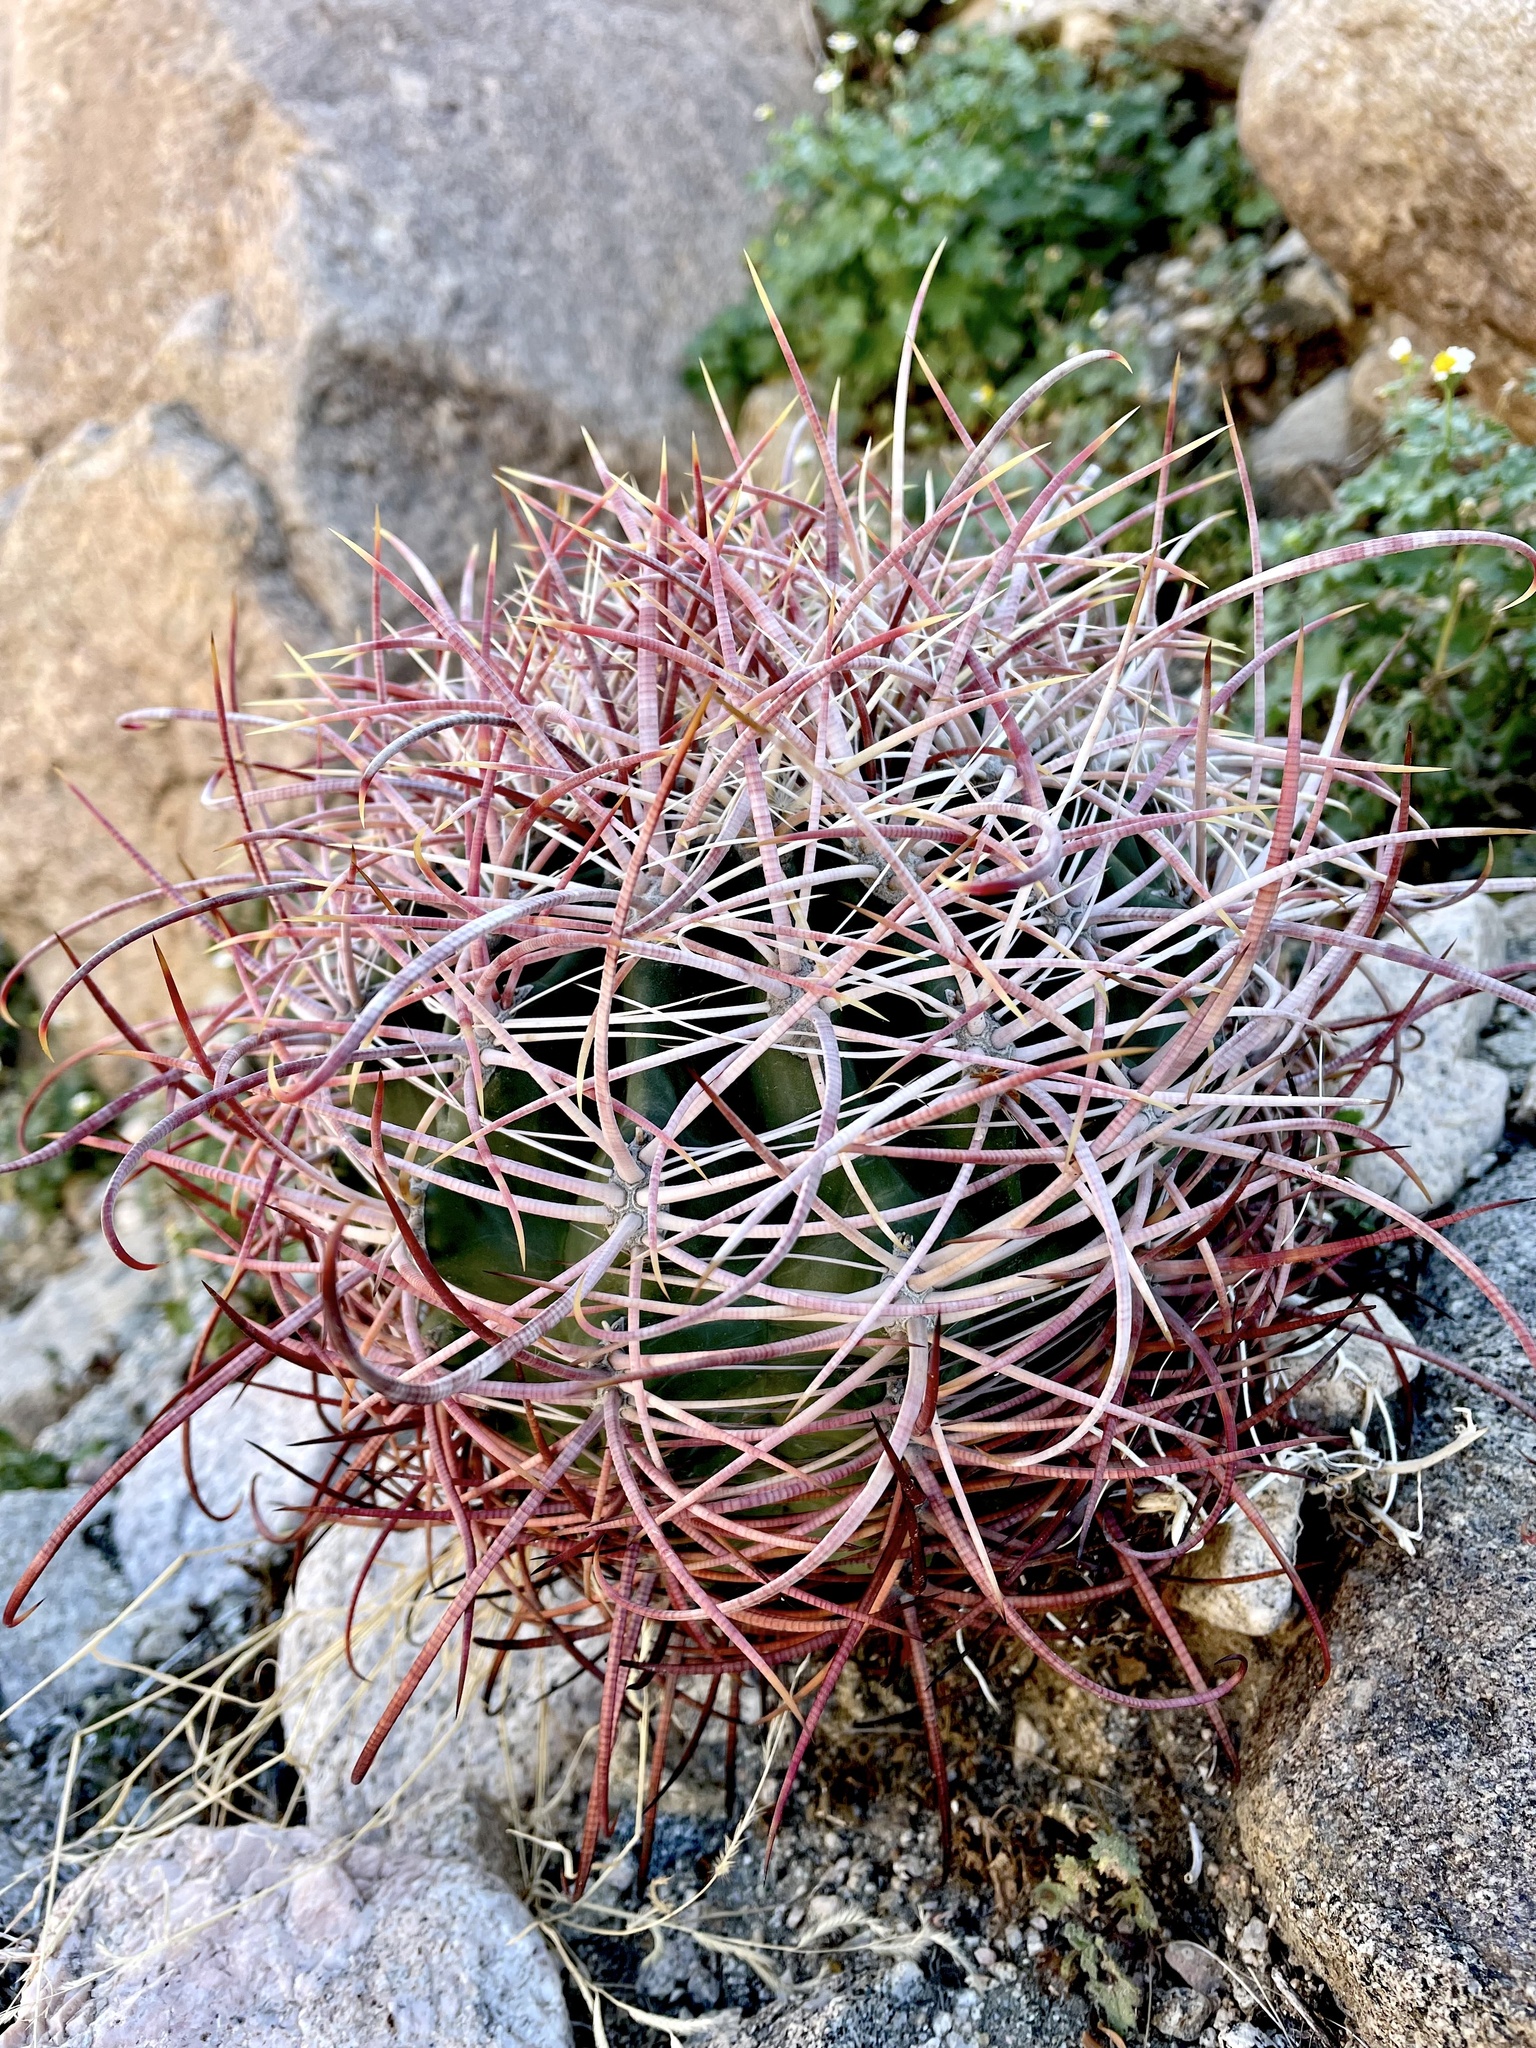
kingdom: Plantae
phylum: Tracheophyta
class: Magnoliopsida
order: Caryophyllales
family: Cactaceae
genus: Ferocactus
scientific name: Ferocactus cylindraceus
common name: California barrel cactus
